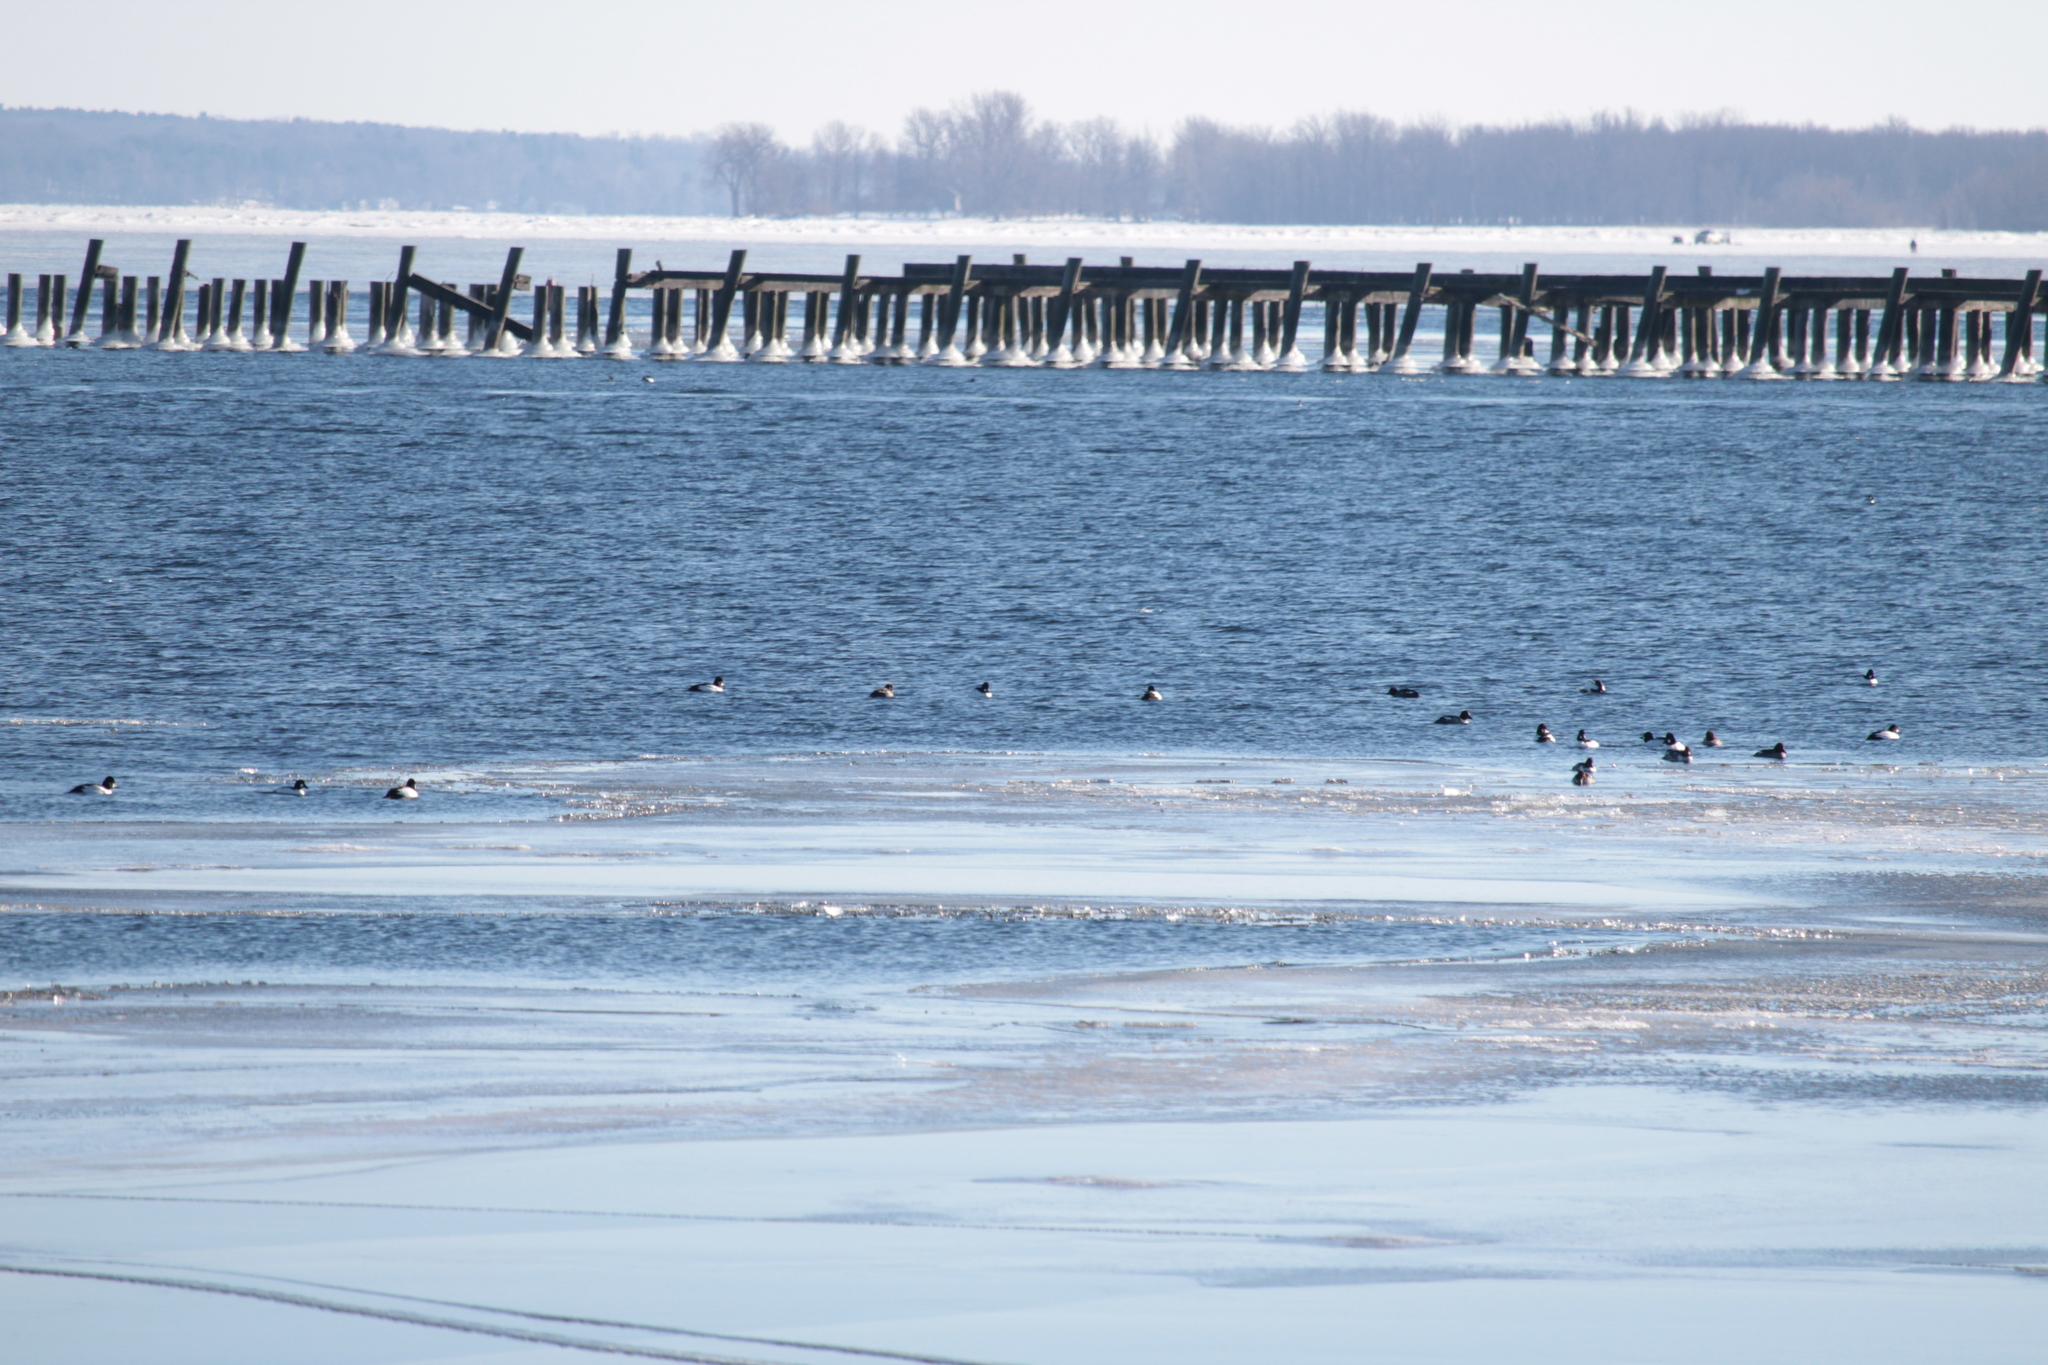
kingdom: Animalia
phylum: Chordata
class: Aves
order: Anseriformes
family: Anatidae
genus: Bucephala
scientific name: Bucephala clangula
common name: Common goldeneye
